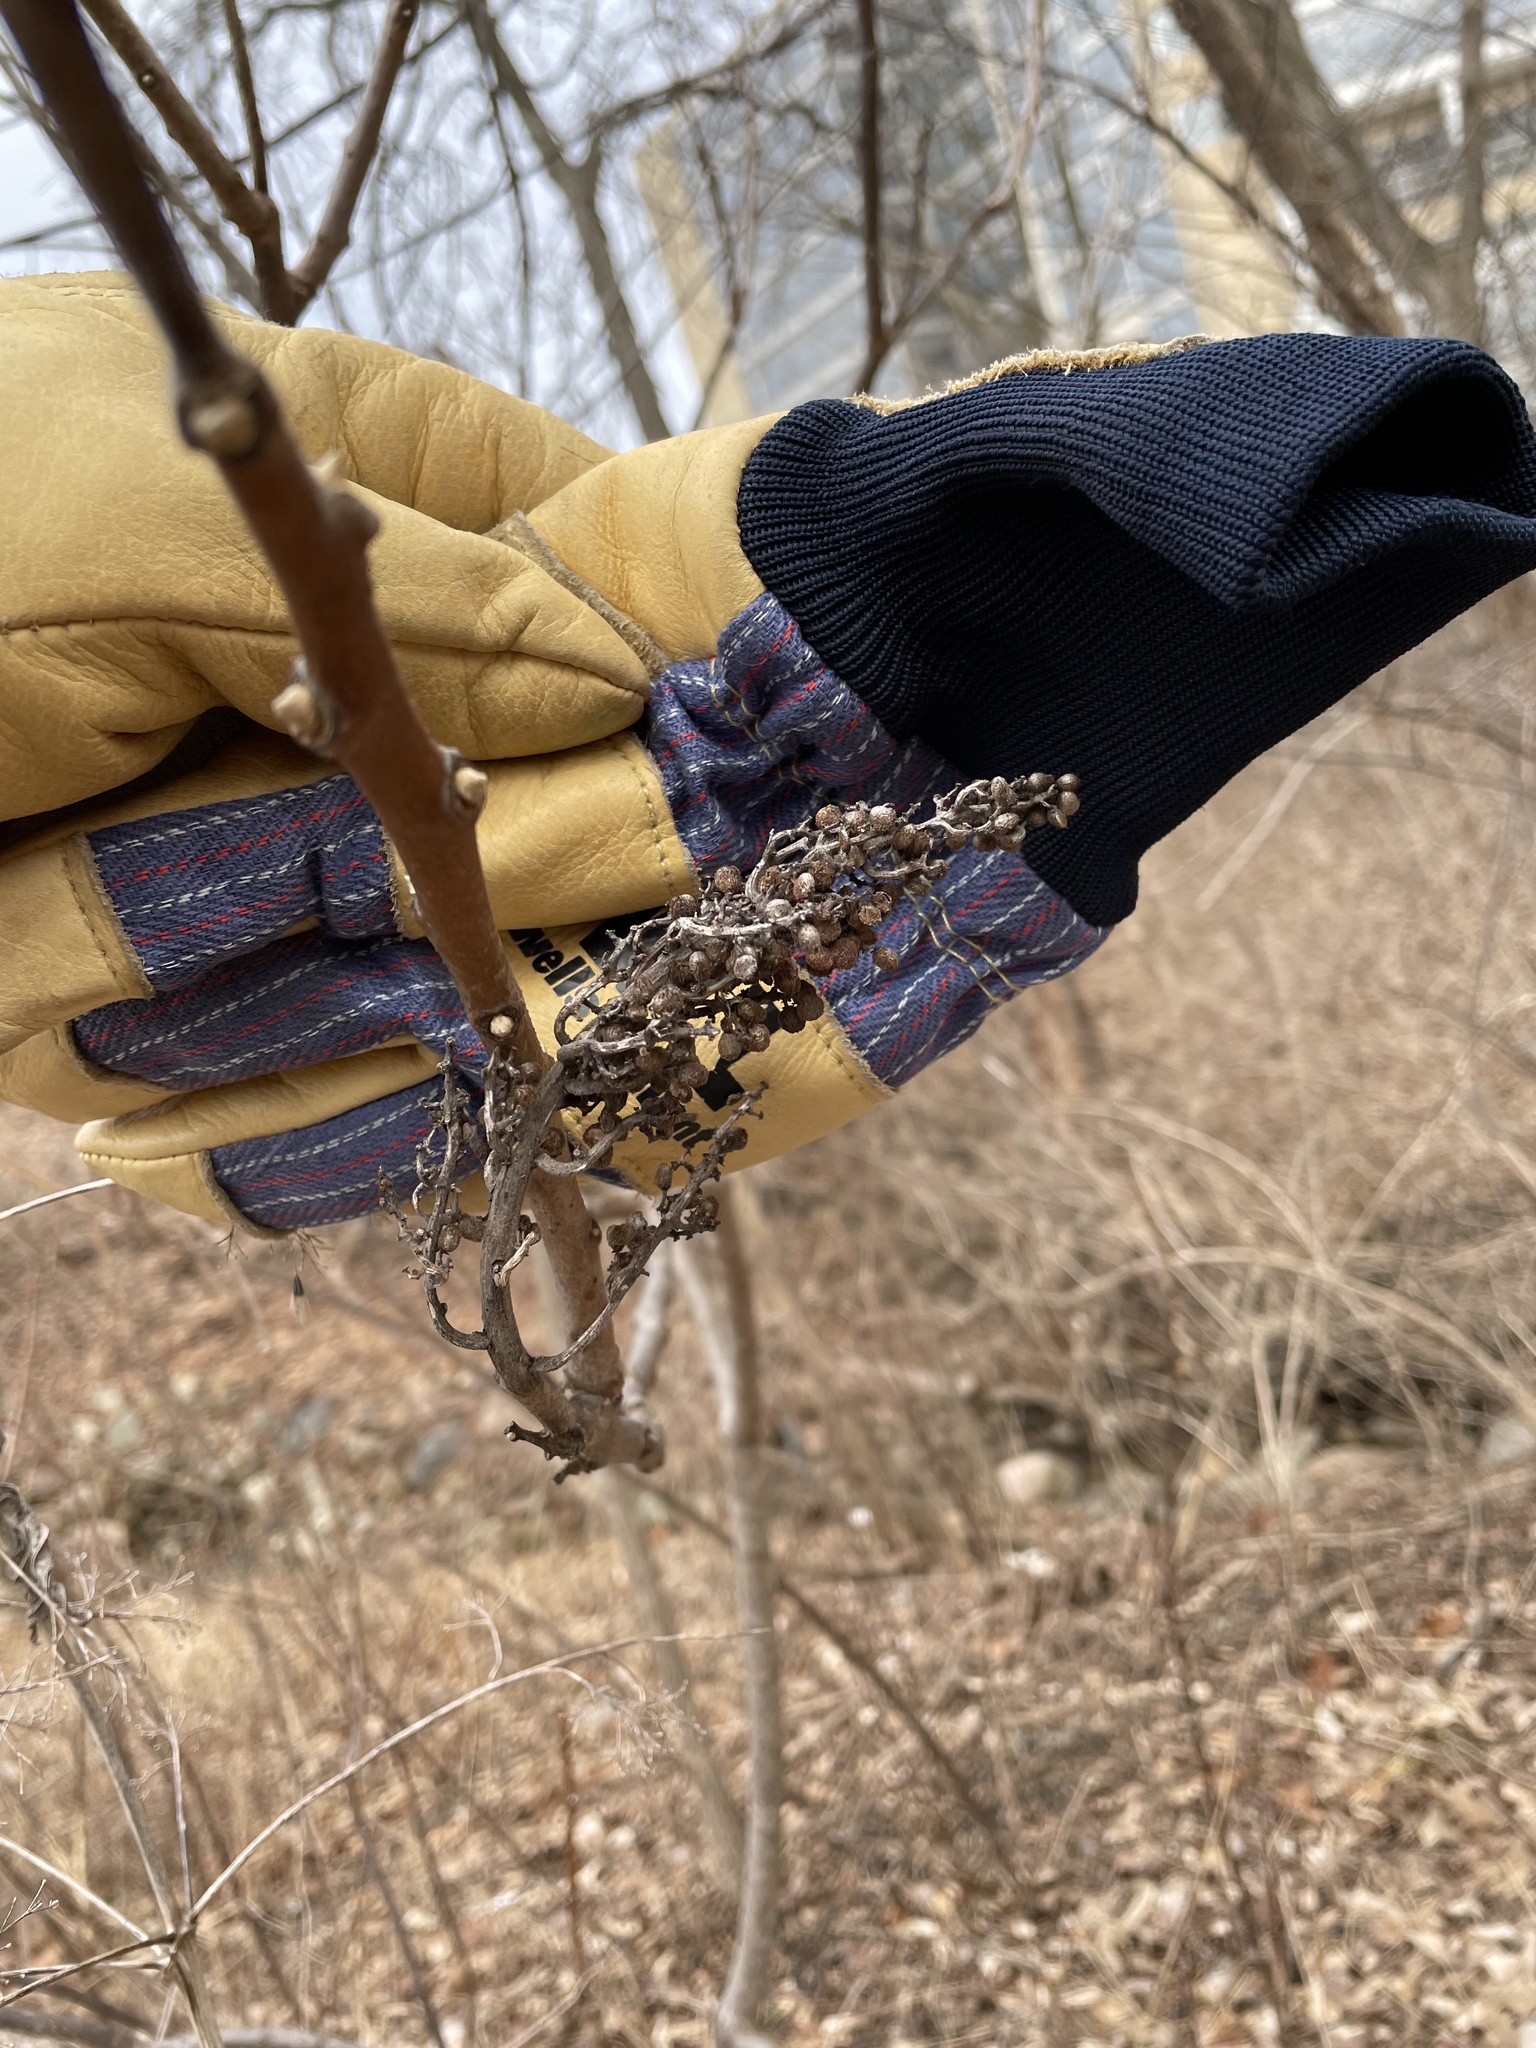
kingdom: Plantae
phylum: Tracheophyta
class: Magnoliopsida
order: Sapindales
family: Anacardiaceae
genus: Rhus
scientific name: Rhus glabra
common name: Scarlet sumac
